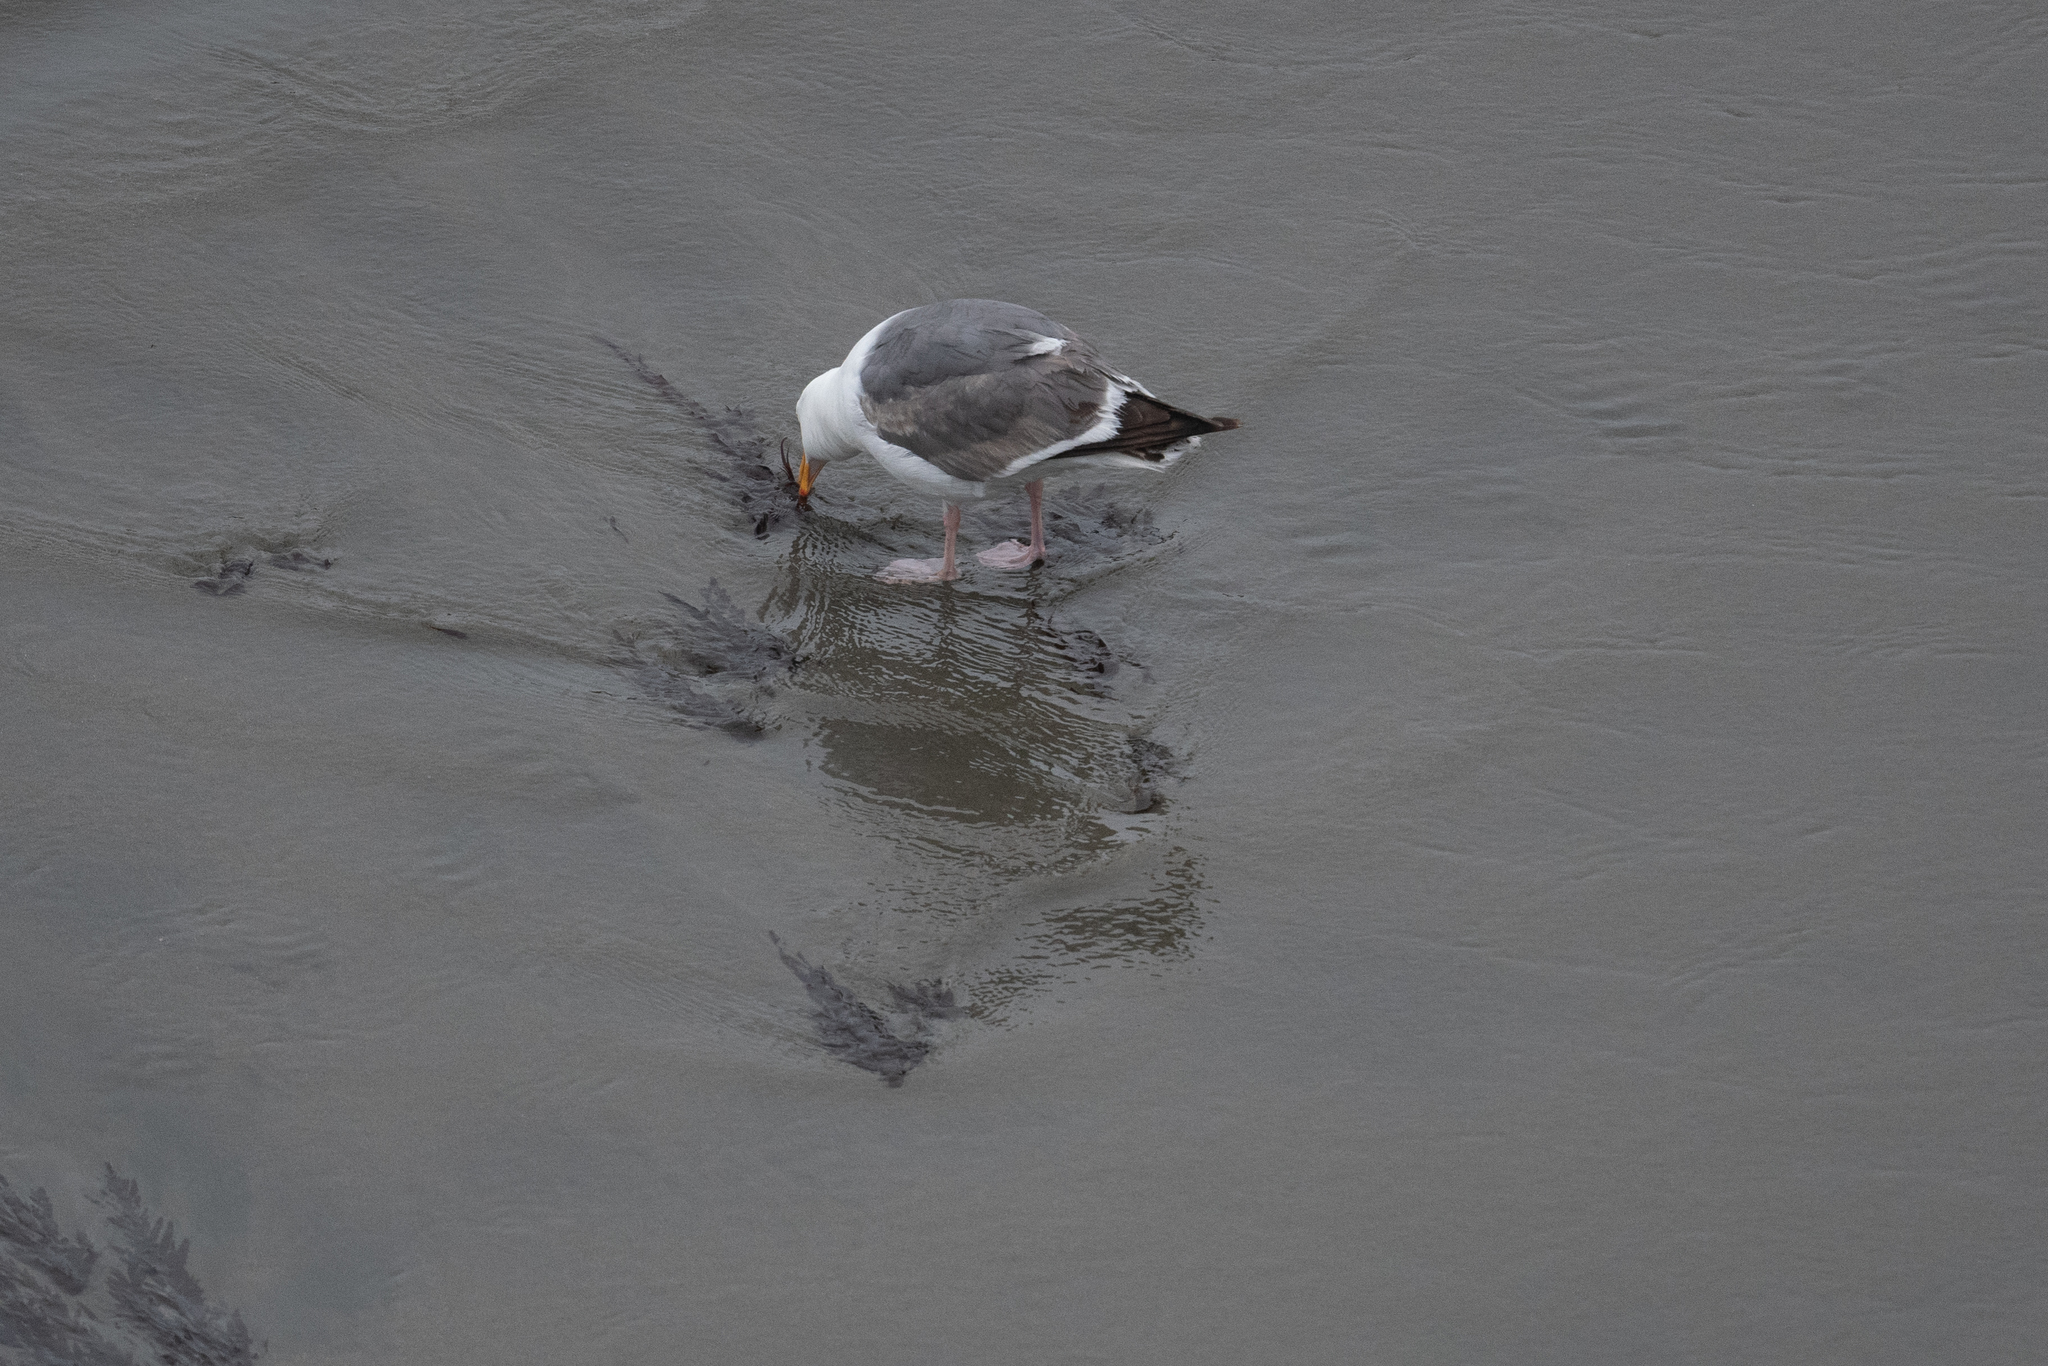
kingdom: Animalia
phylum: Chordata
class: Aves
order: Charadriiformes
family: Laridae
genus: Larus
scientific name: Larus occidentalis
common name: Western gull
